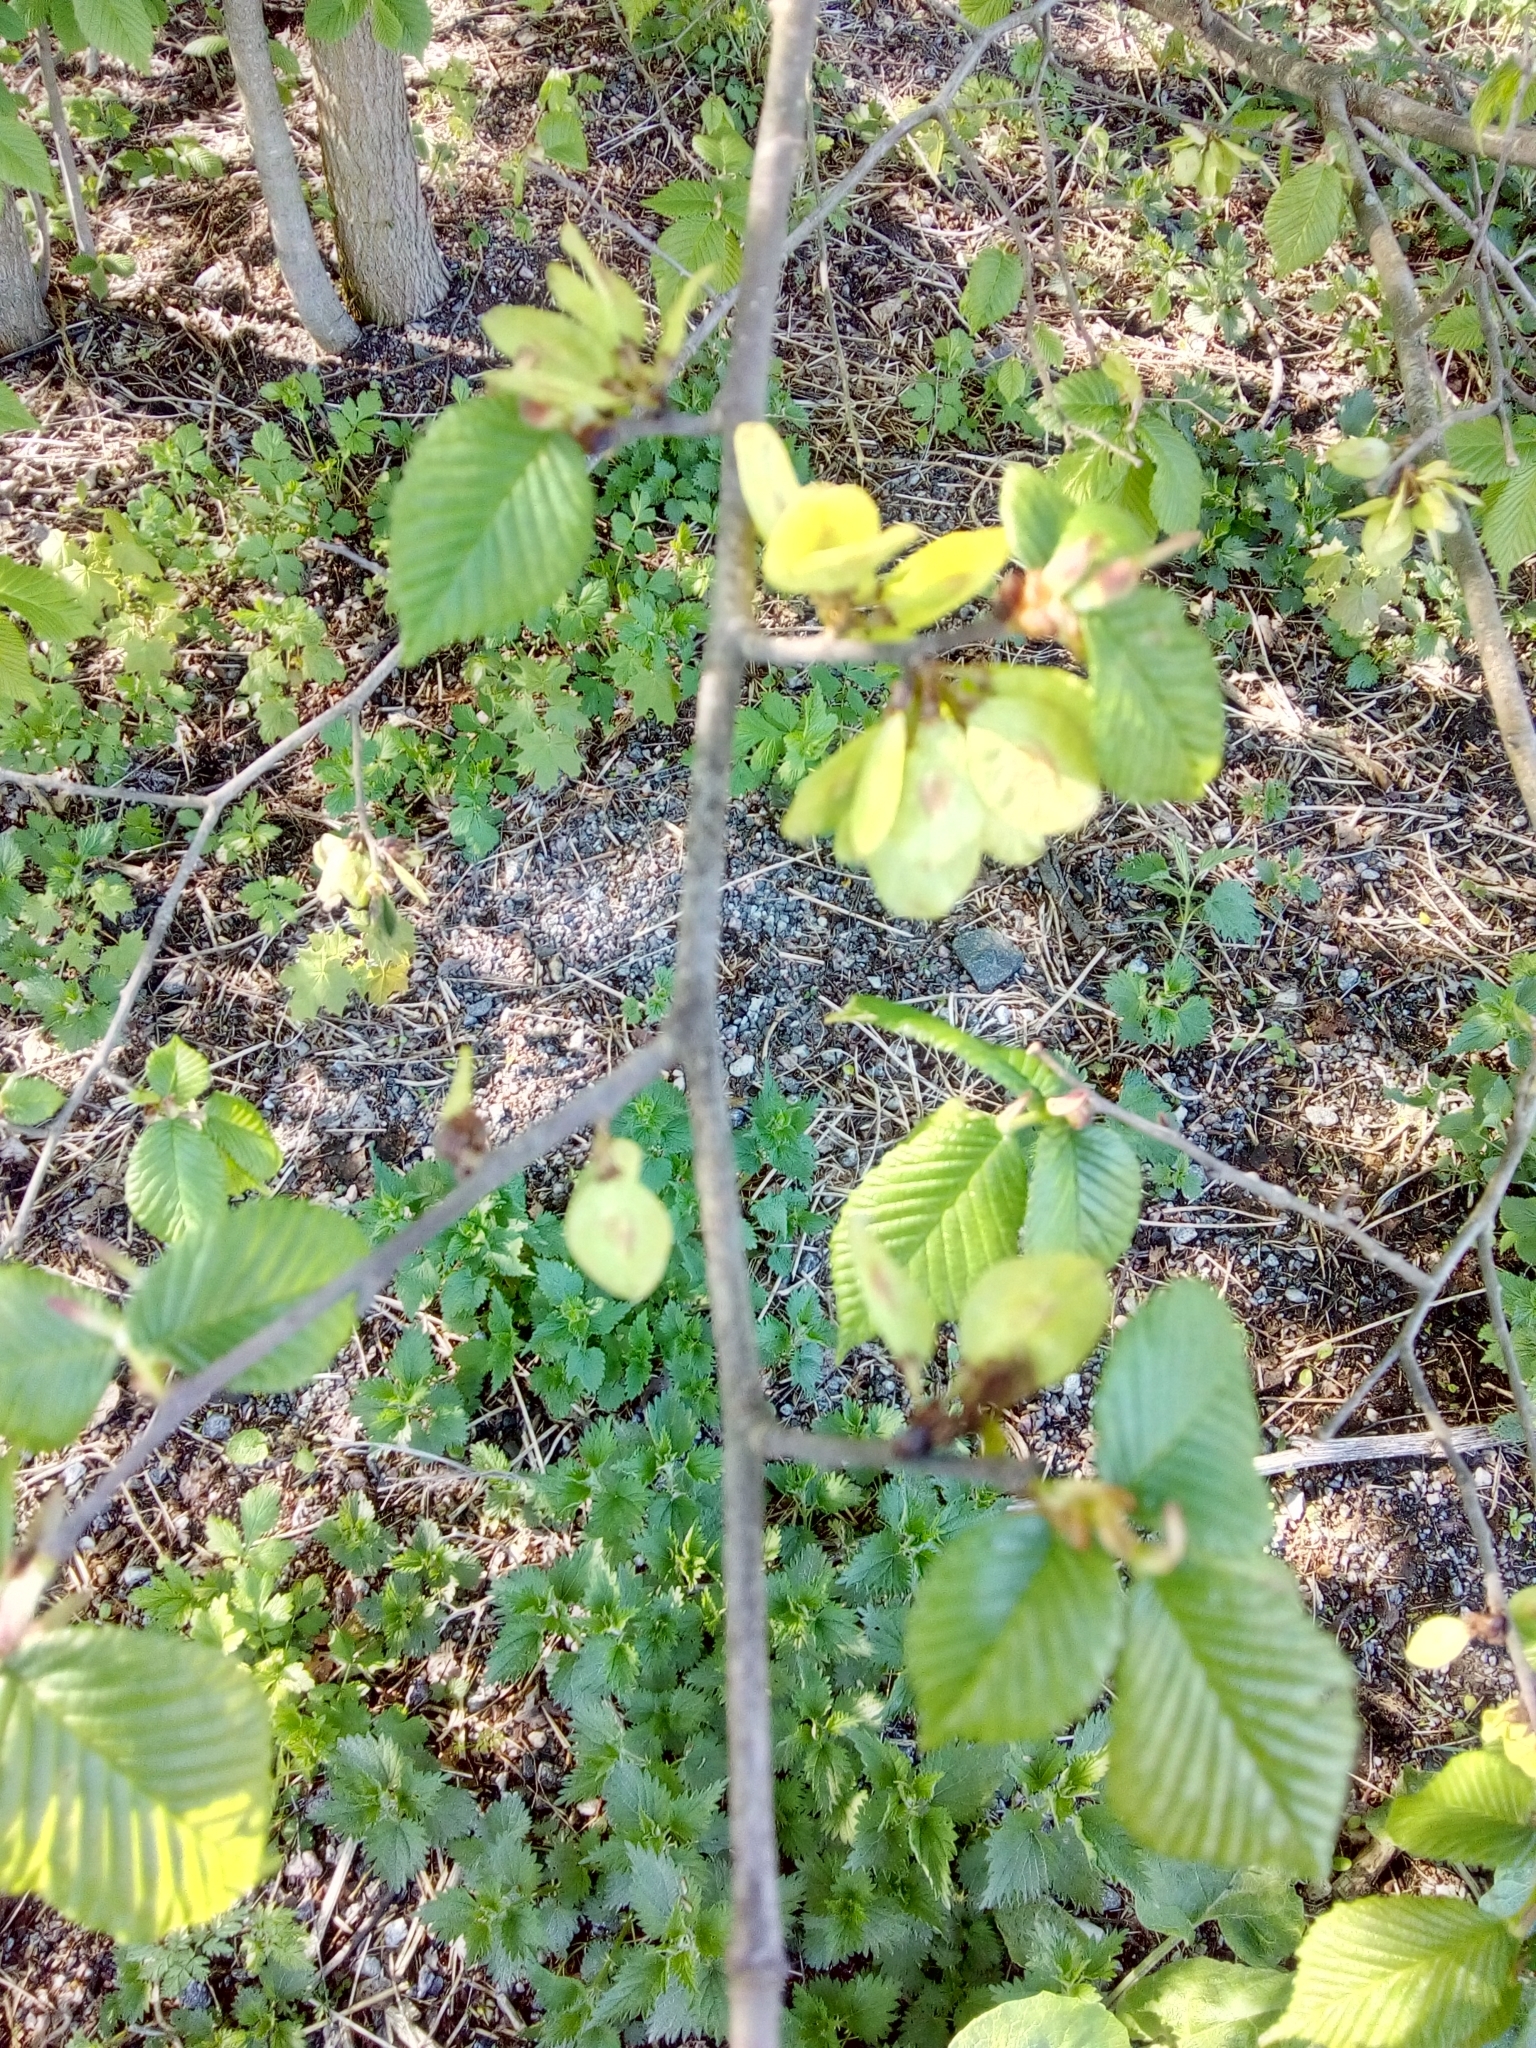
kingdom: Plantae
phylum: Tracheophyta
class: Magnoliopsida
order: Rosales
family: Ulmaceae
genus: Ulmus
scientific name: Ulmus glabra
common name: Wych elm
